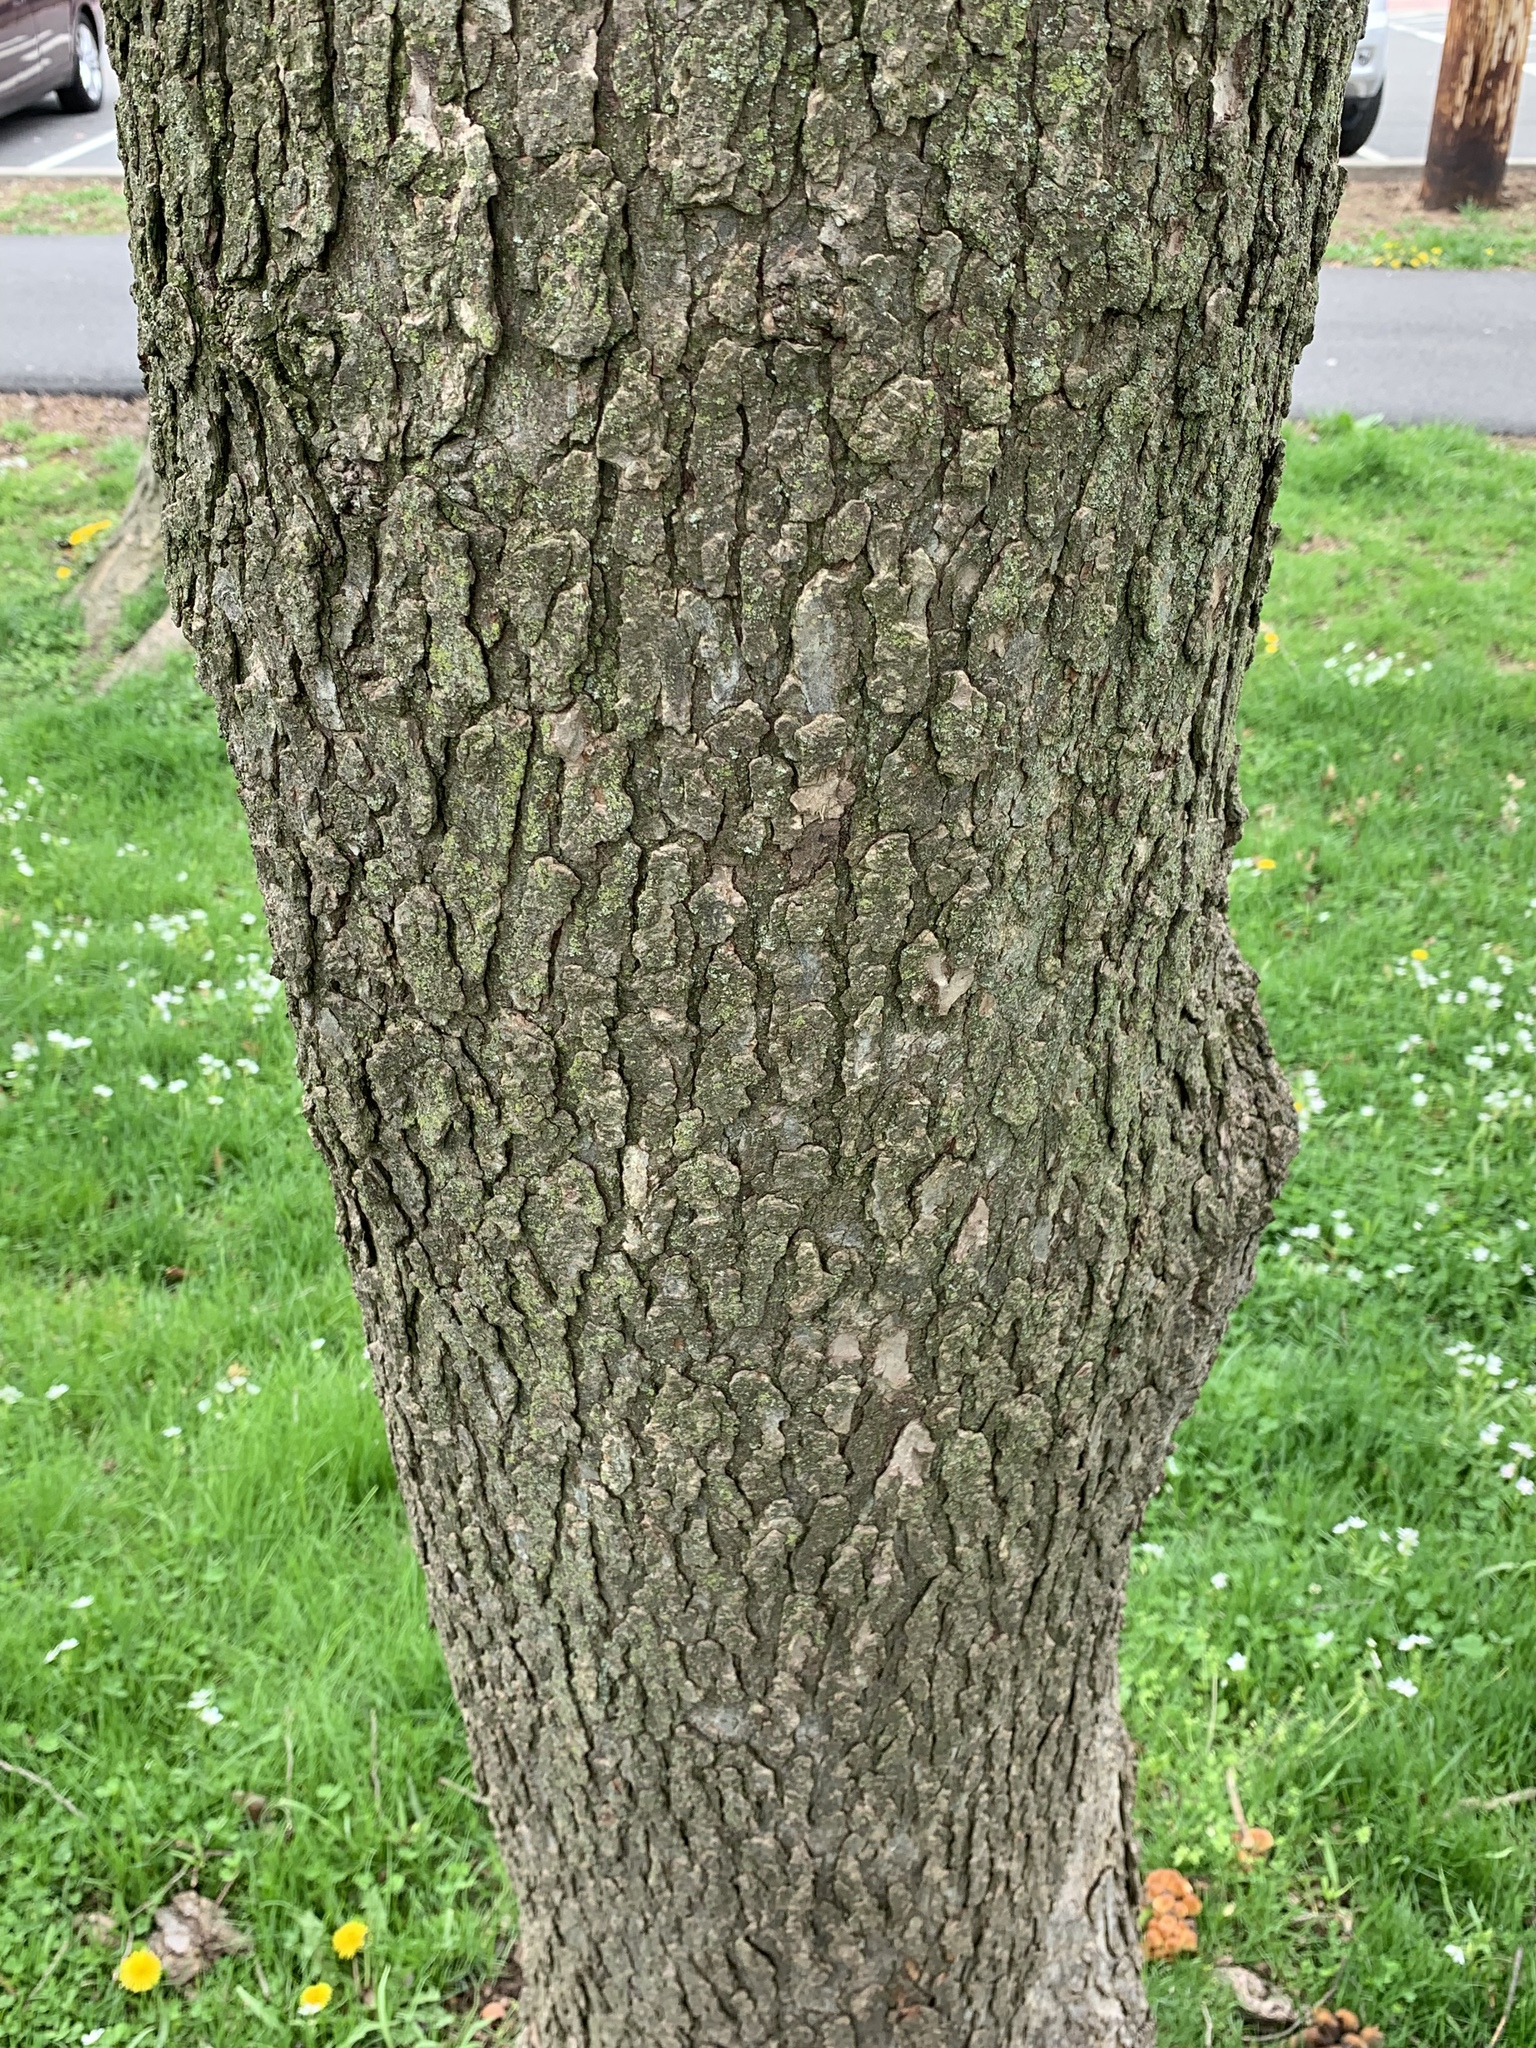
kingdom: Plantae
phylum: Tracheophyta
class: Magnoliopsida
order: Rosales
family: Ulmaceae
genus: Ulmus
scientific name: Ulmus rubra
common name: Slippery elm
